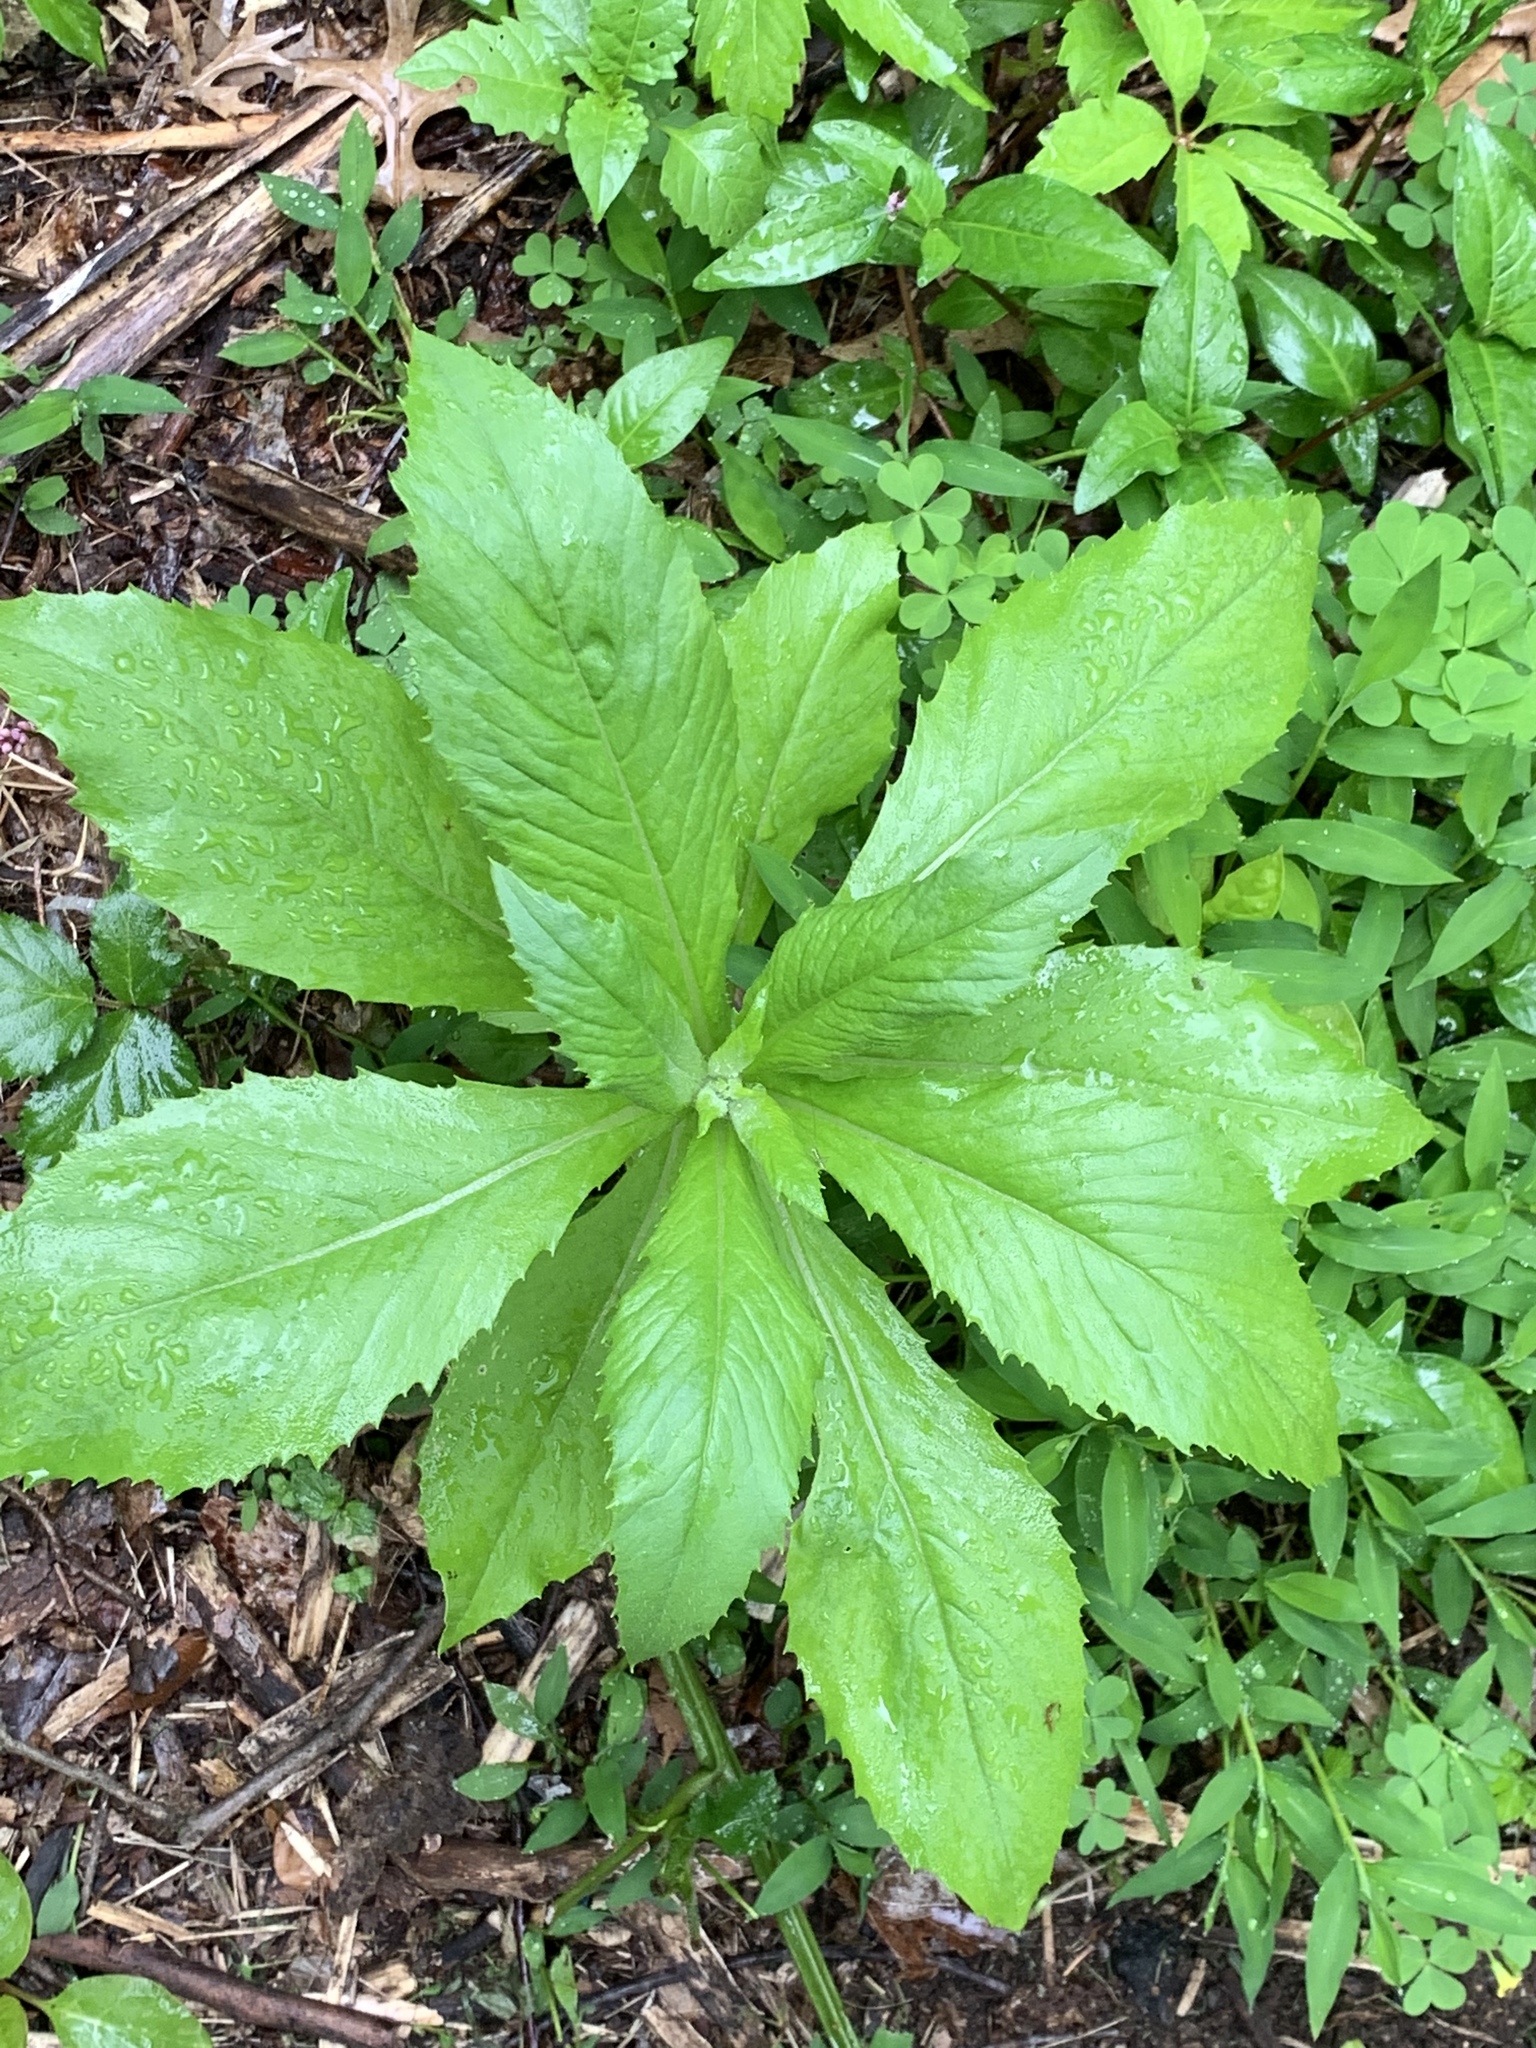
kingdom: Plantae
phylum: Tracheophyta
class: Magnoliopsida
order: Asterales
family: Asteraceae
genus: Erechtites
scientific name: Erechtites hieraciifolius
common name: American burnweed
